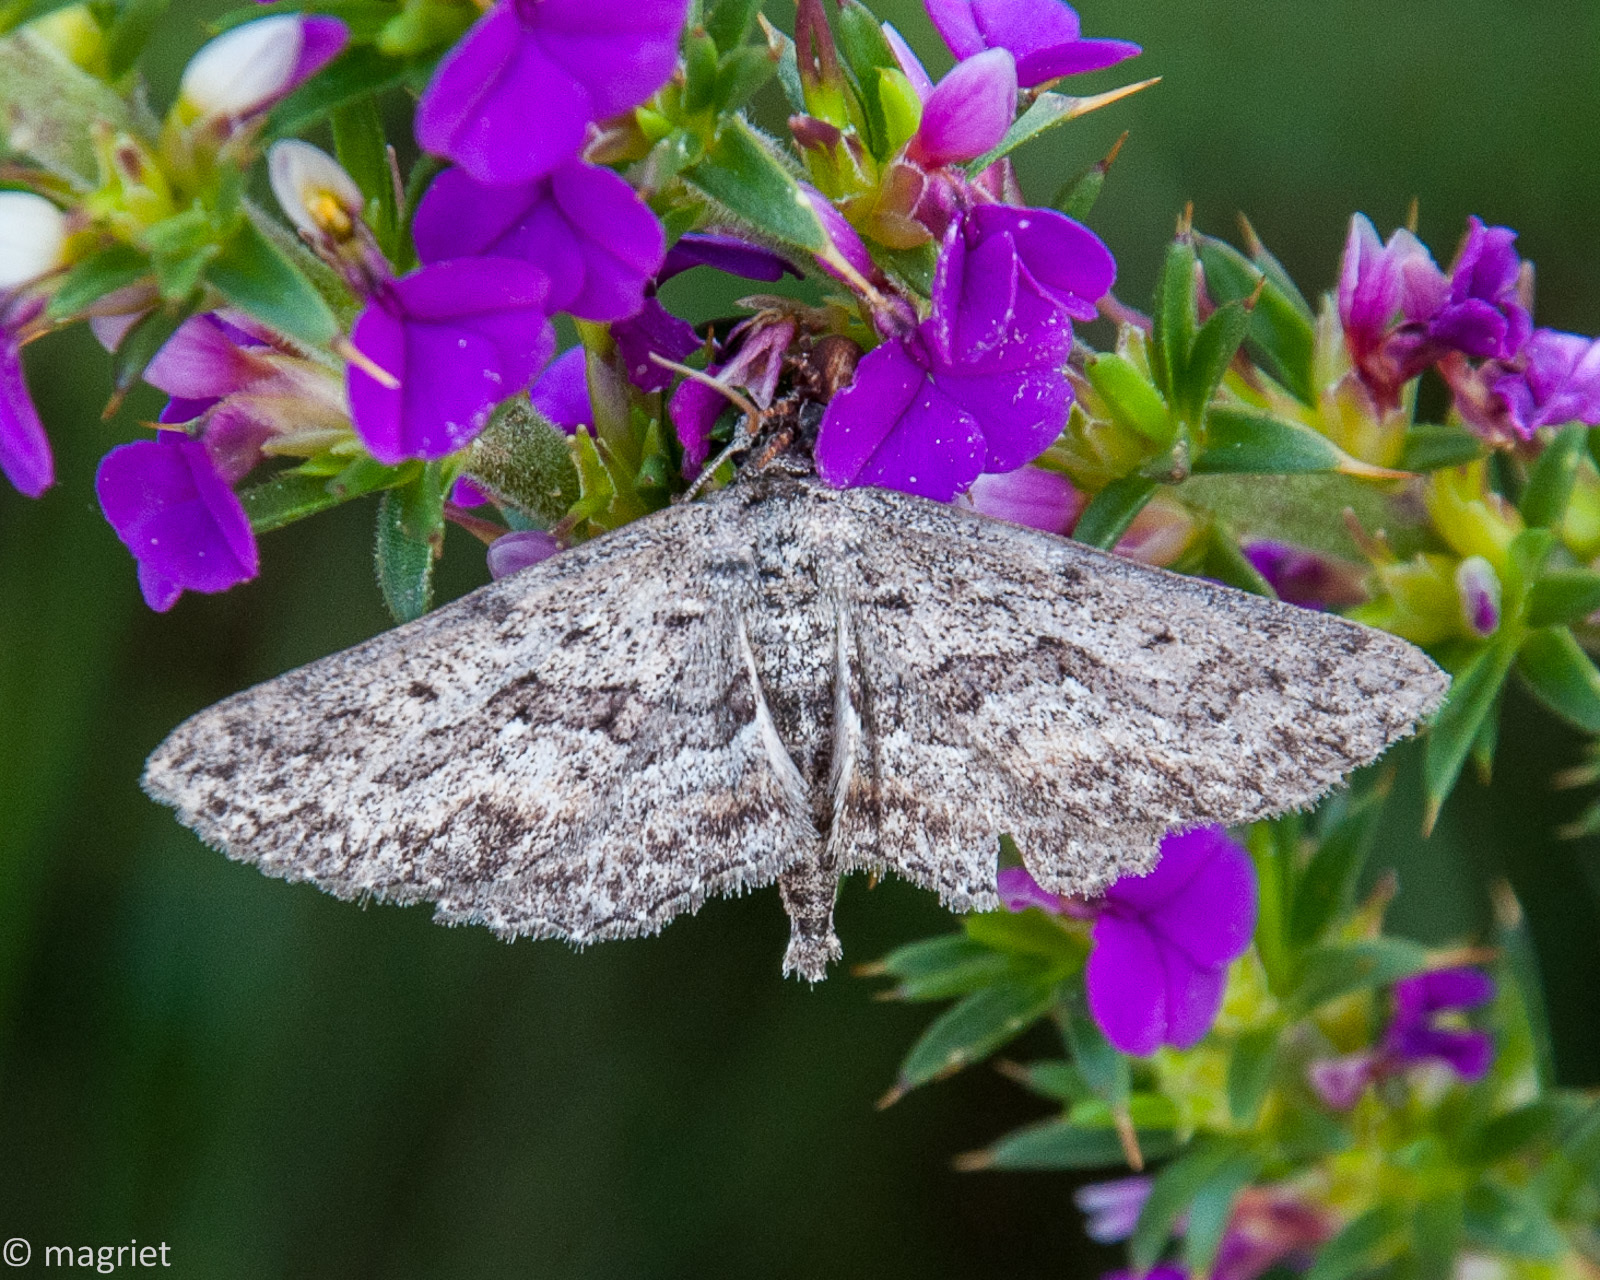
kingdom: Animalia
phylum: Arthropoda
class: Insecta
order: Lepidoptera
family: Geometridae
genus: Larentioides
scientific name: Larentioides cacothemon
